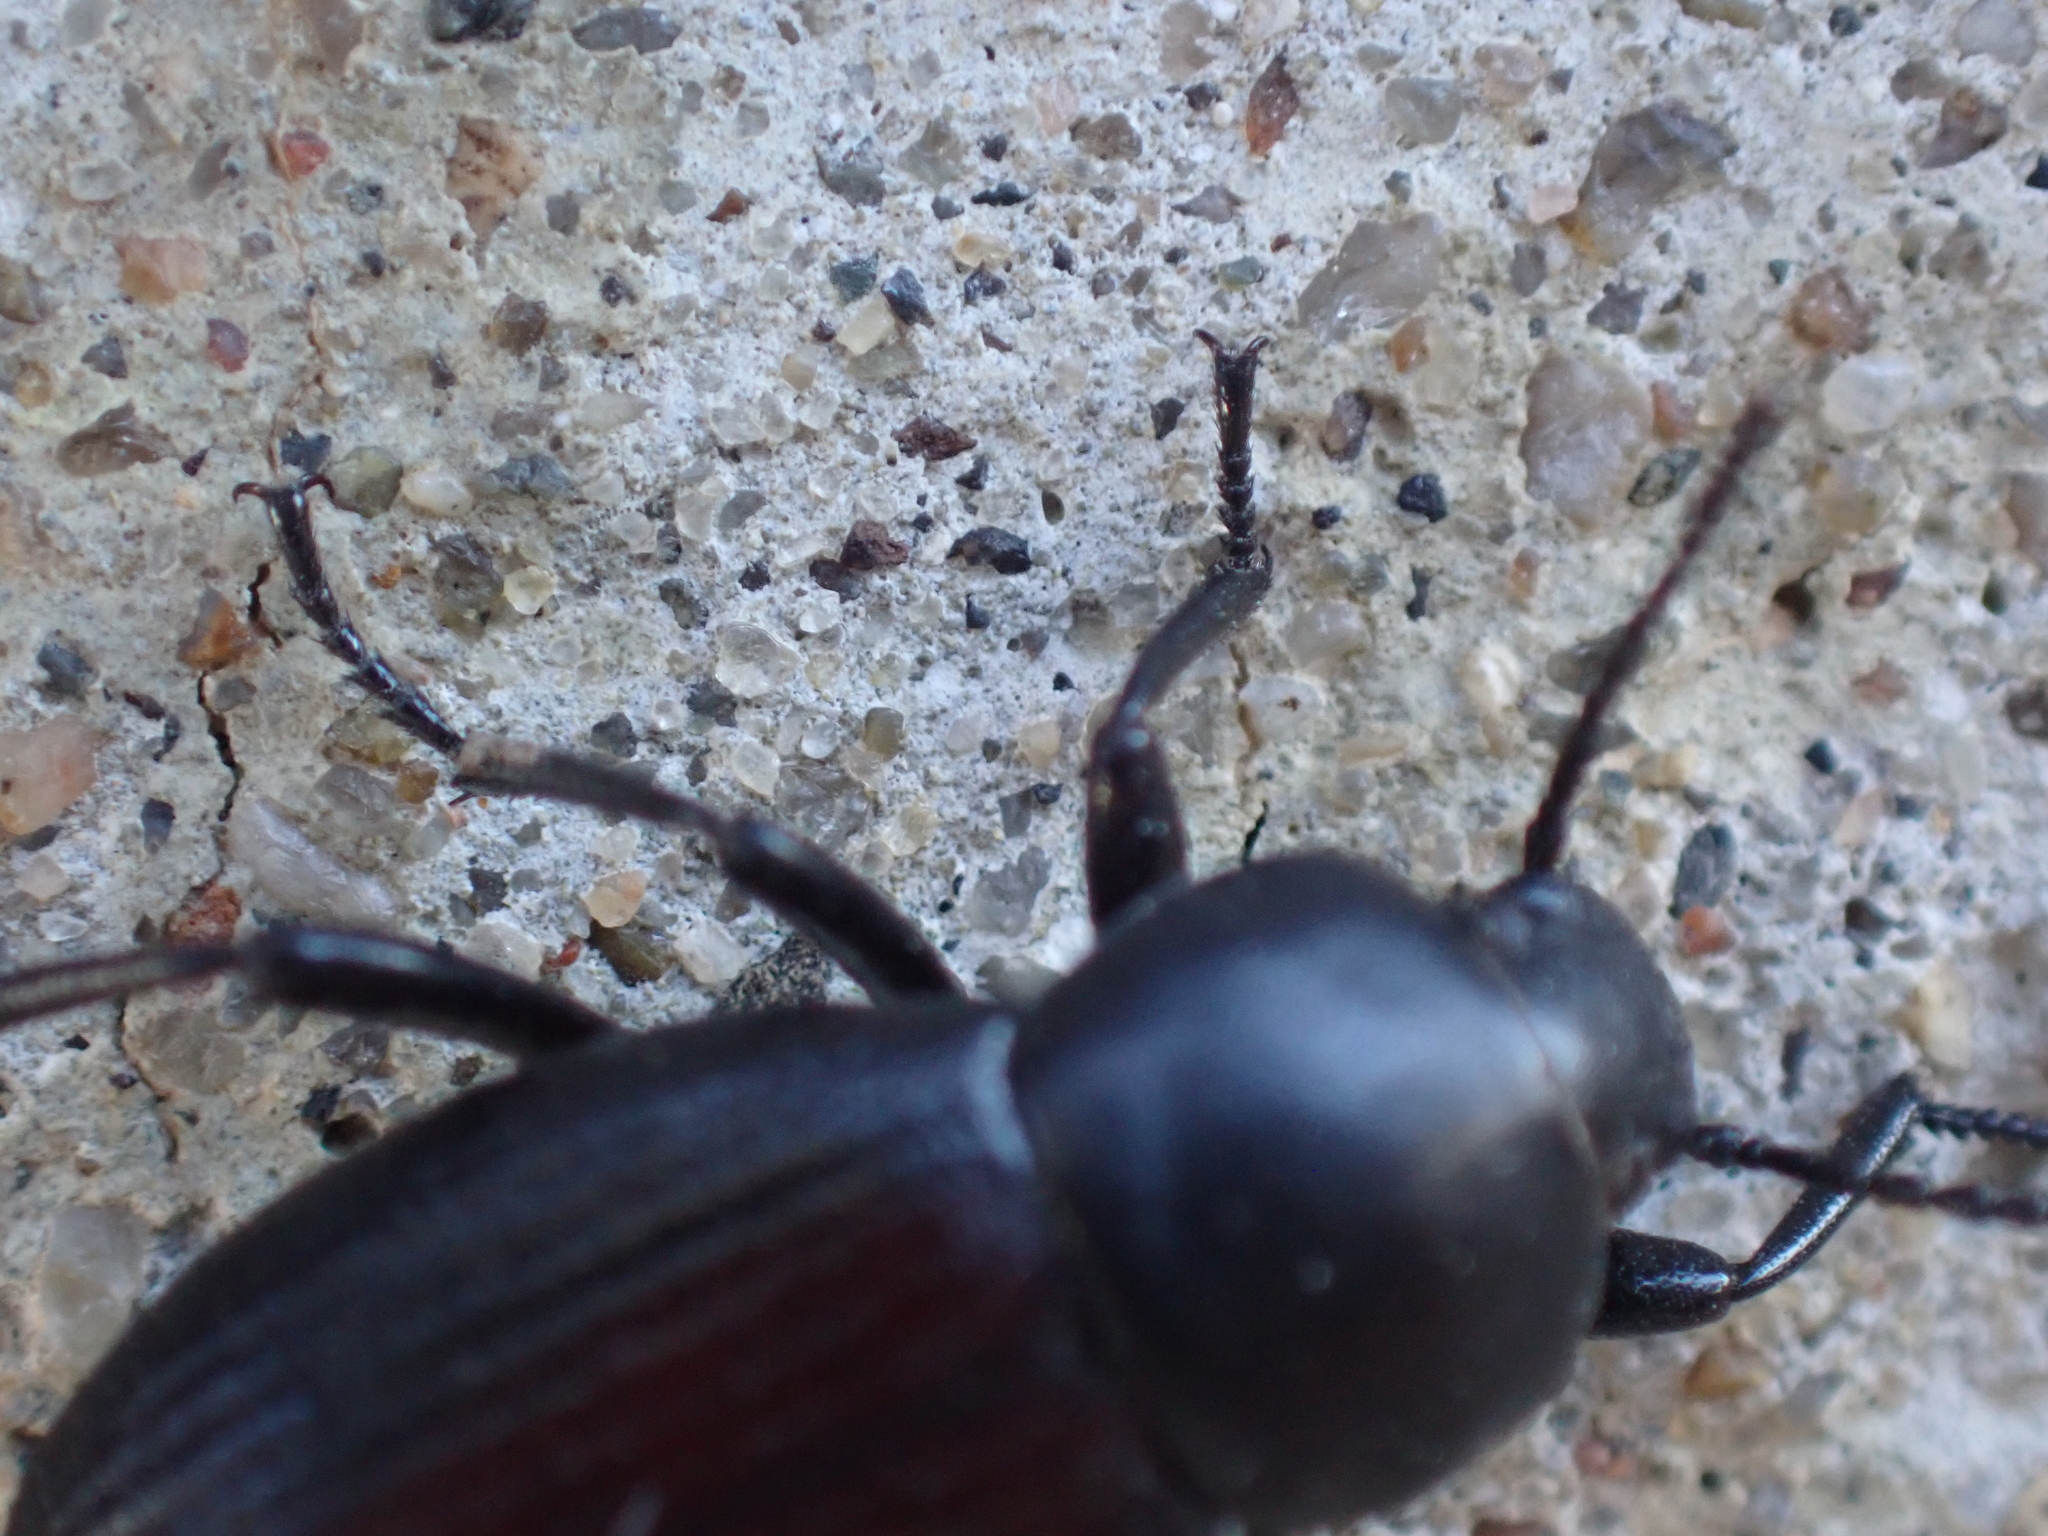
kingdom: Animalia
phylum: Arthropoda
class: Insecta
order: Coleoptera
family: Tenebrionidae
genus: Eleodes
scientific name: Eleodes carbonaria
